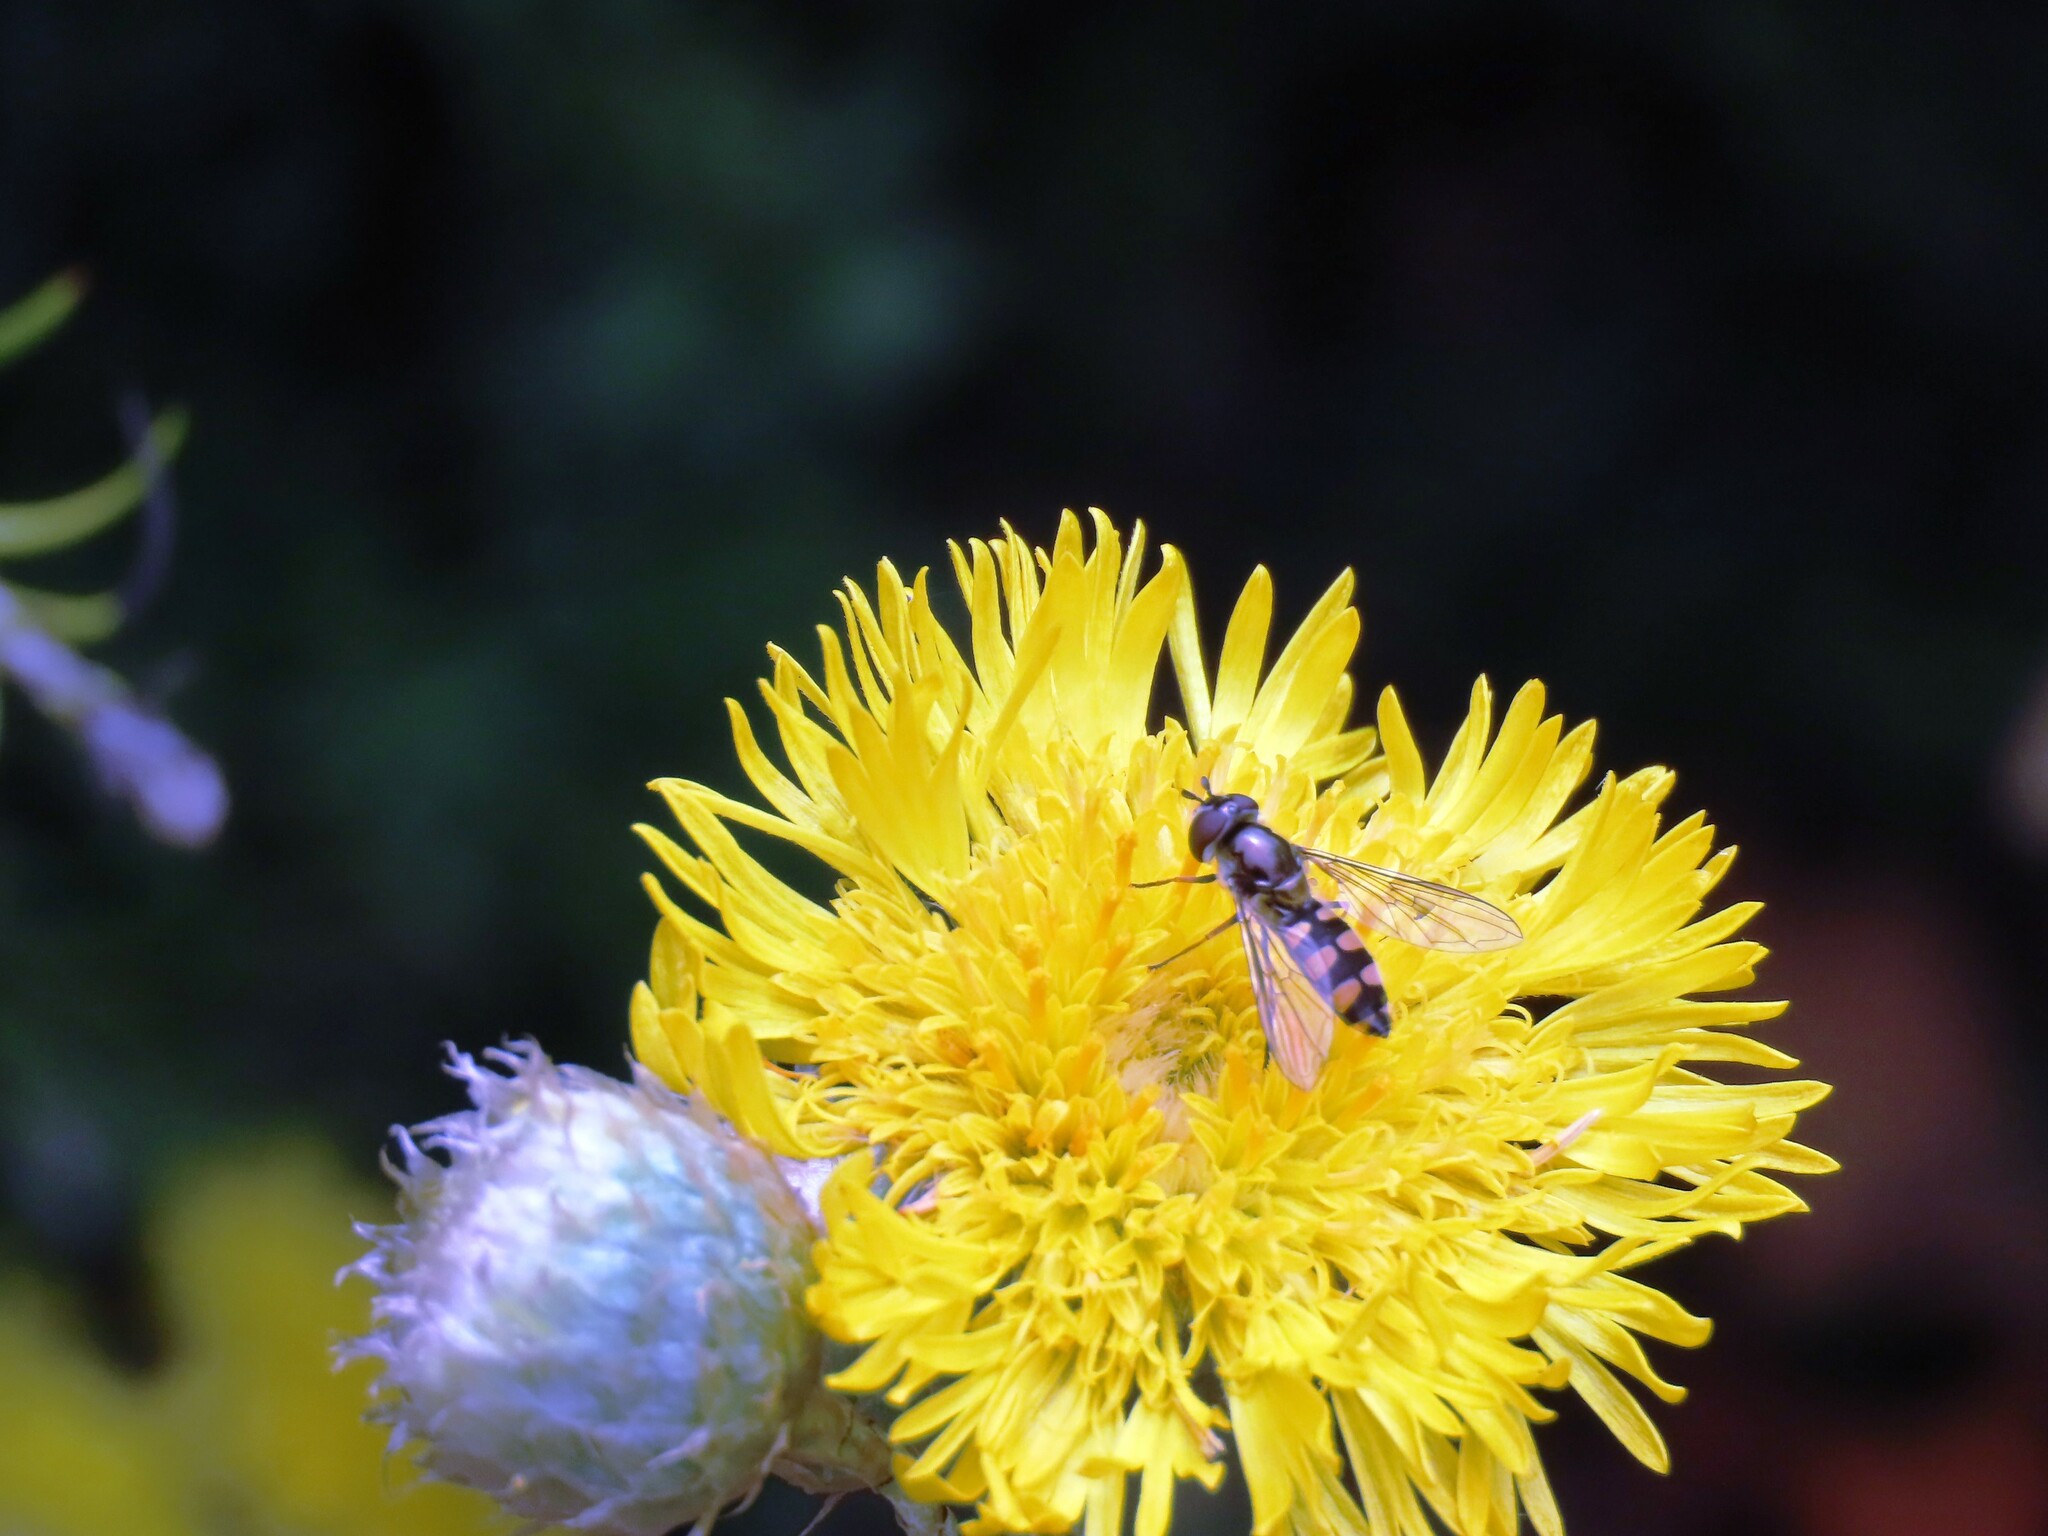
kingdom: Animalia
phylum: Arthropoda
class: Insecta
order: Diptera
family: Syrphidae
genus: Melangyna
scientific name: Melangyna viridiceps
